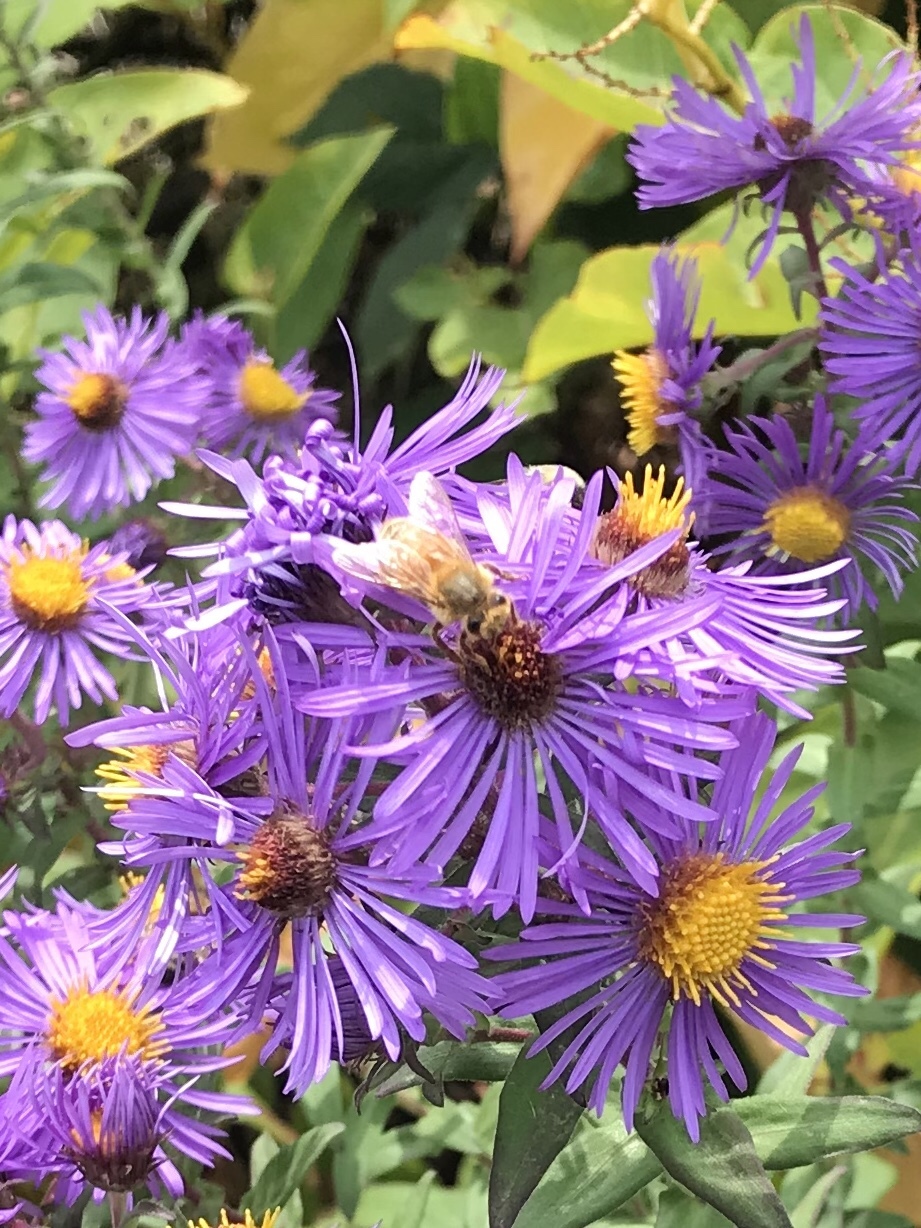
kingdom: Animalia
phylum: Arthropoda
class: Insecta
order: Hymenoptera
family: Apidae
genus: Apis
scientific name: Apis mellifera
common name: Honey bee
